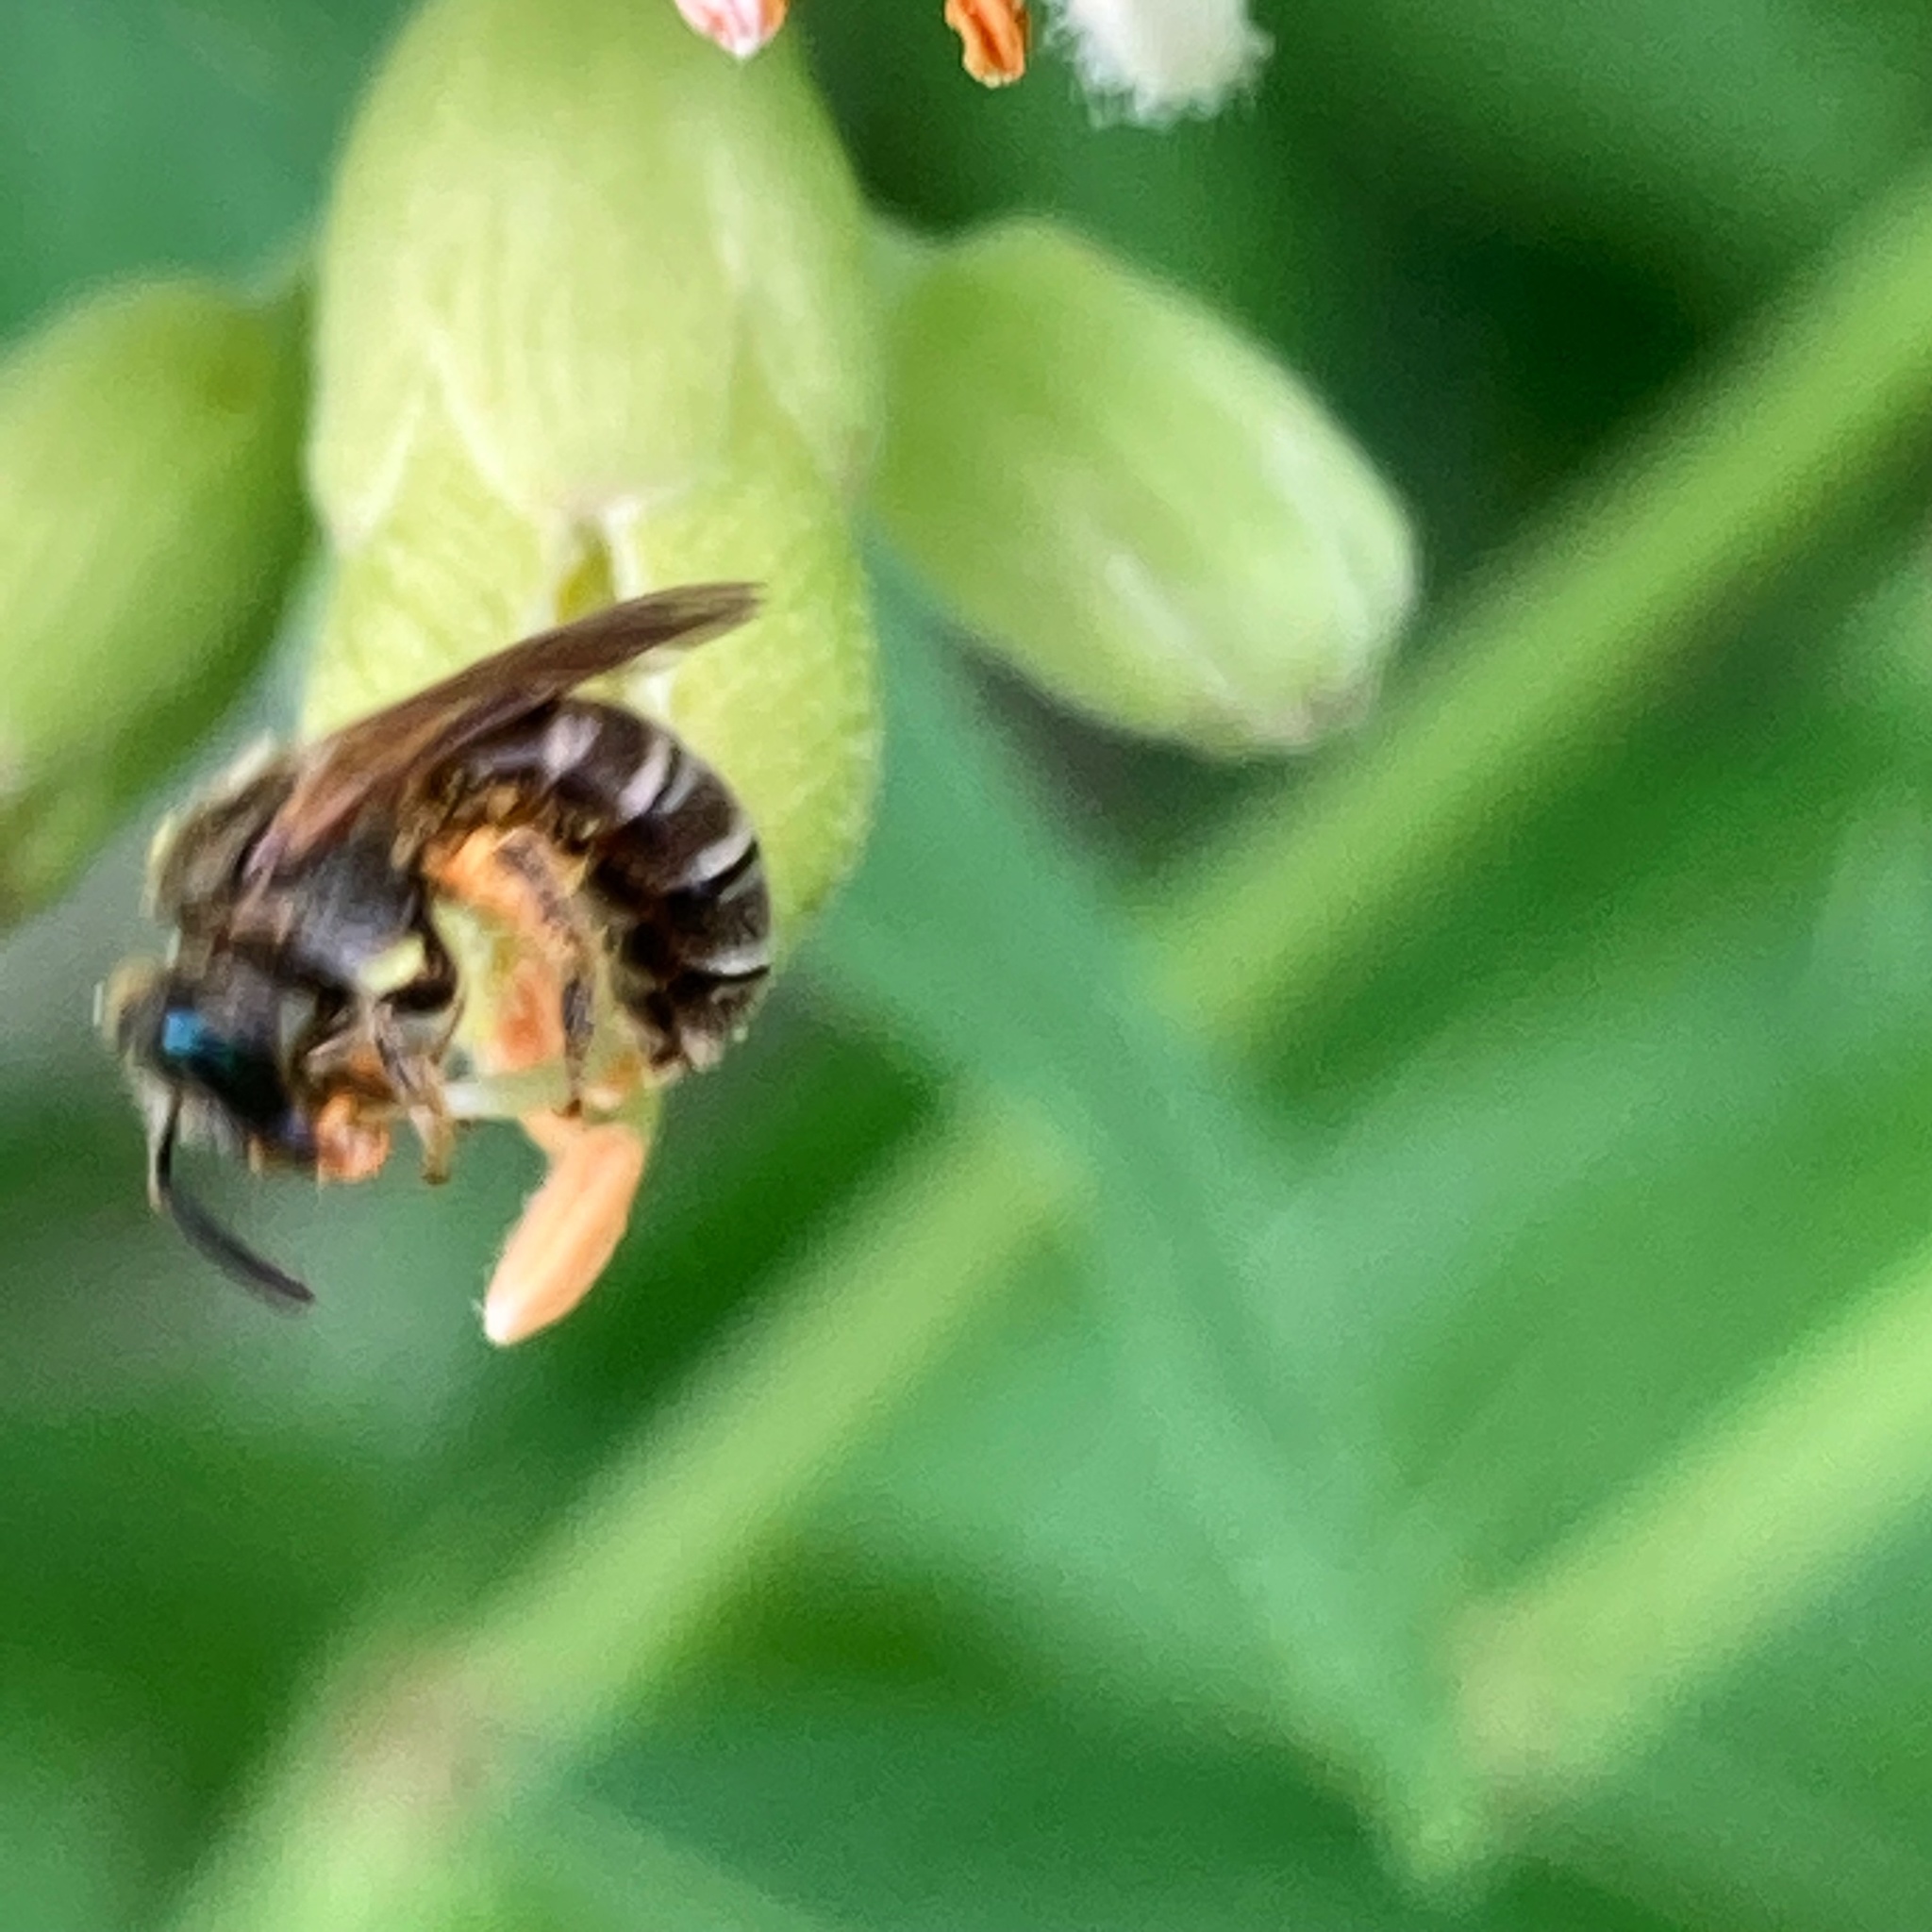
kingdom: Animalia
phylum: Arthropoda
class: Insecta
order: Hymenoptera
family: Halictidae
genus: Halictus
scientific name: Halictus confusus
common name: Southern bronze furrow bee
